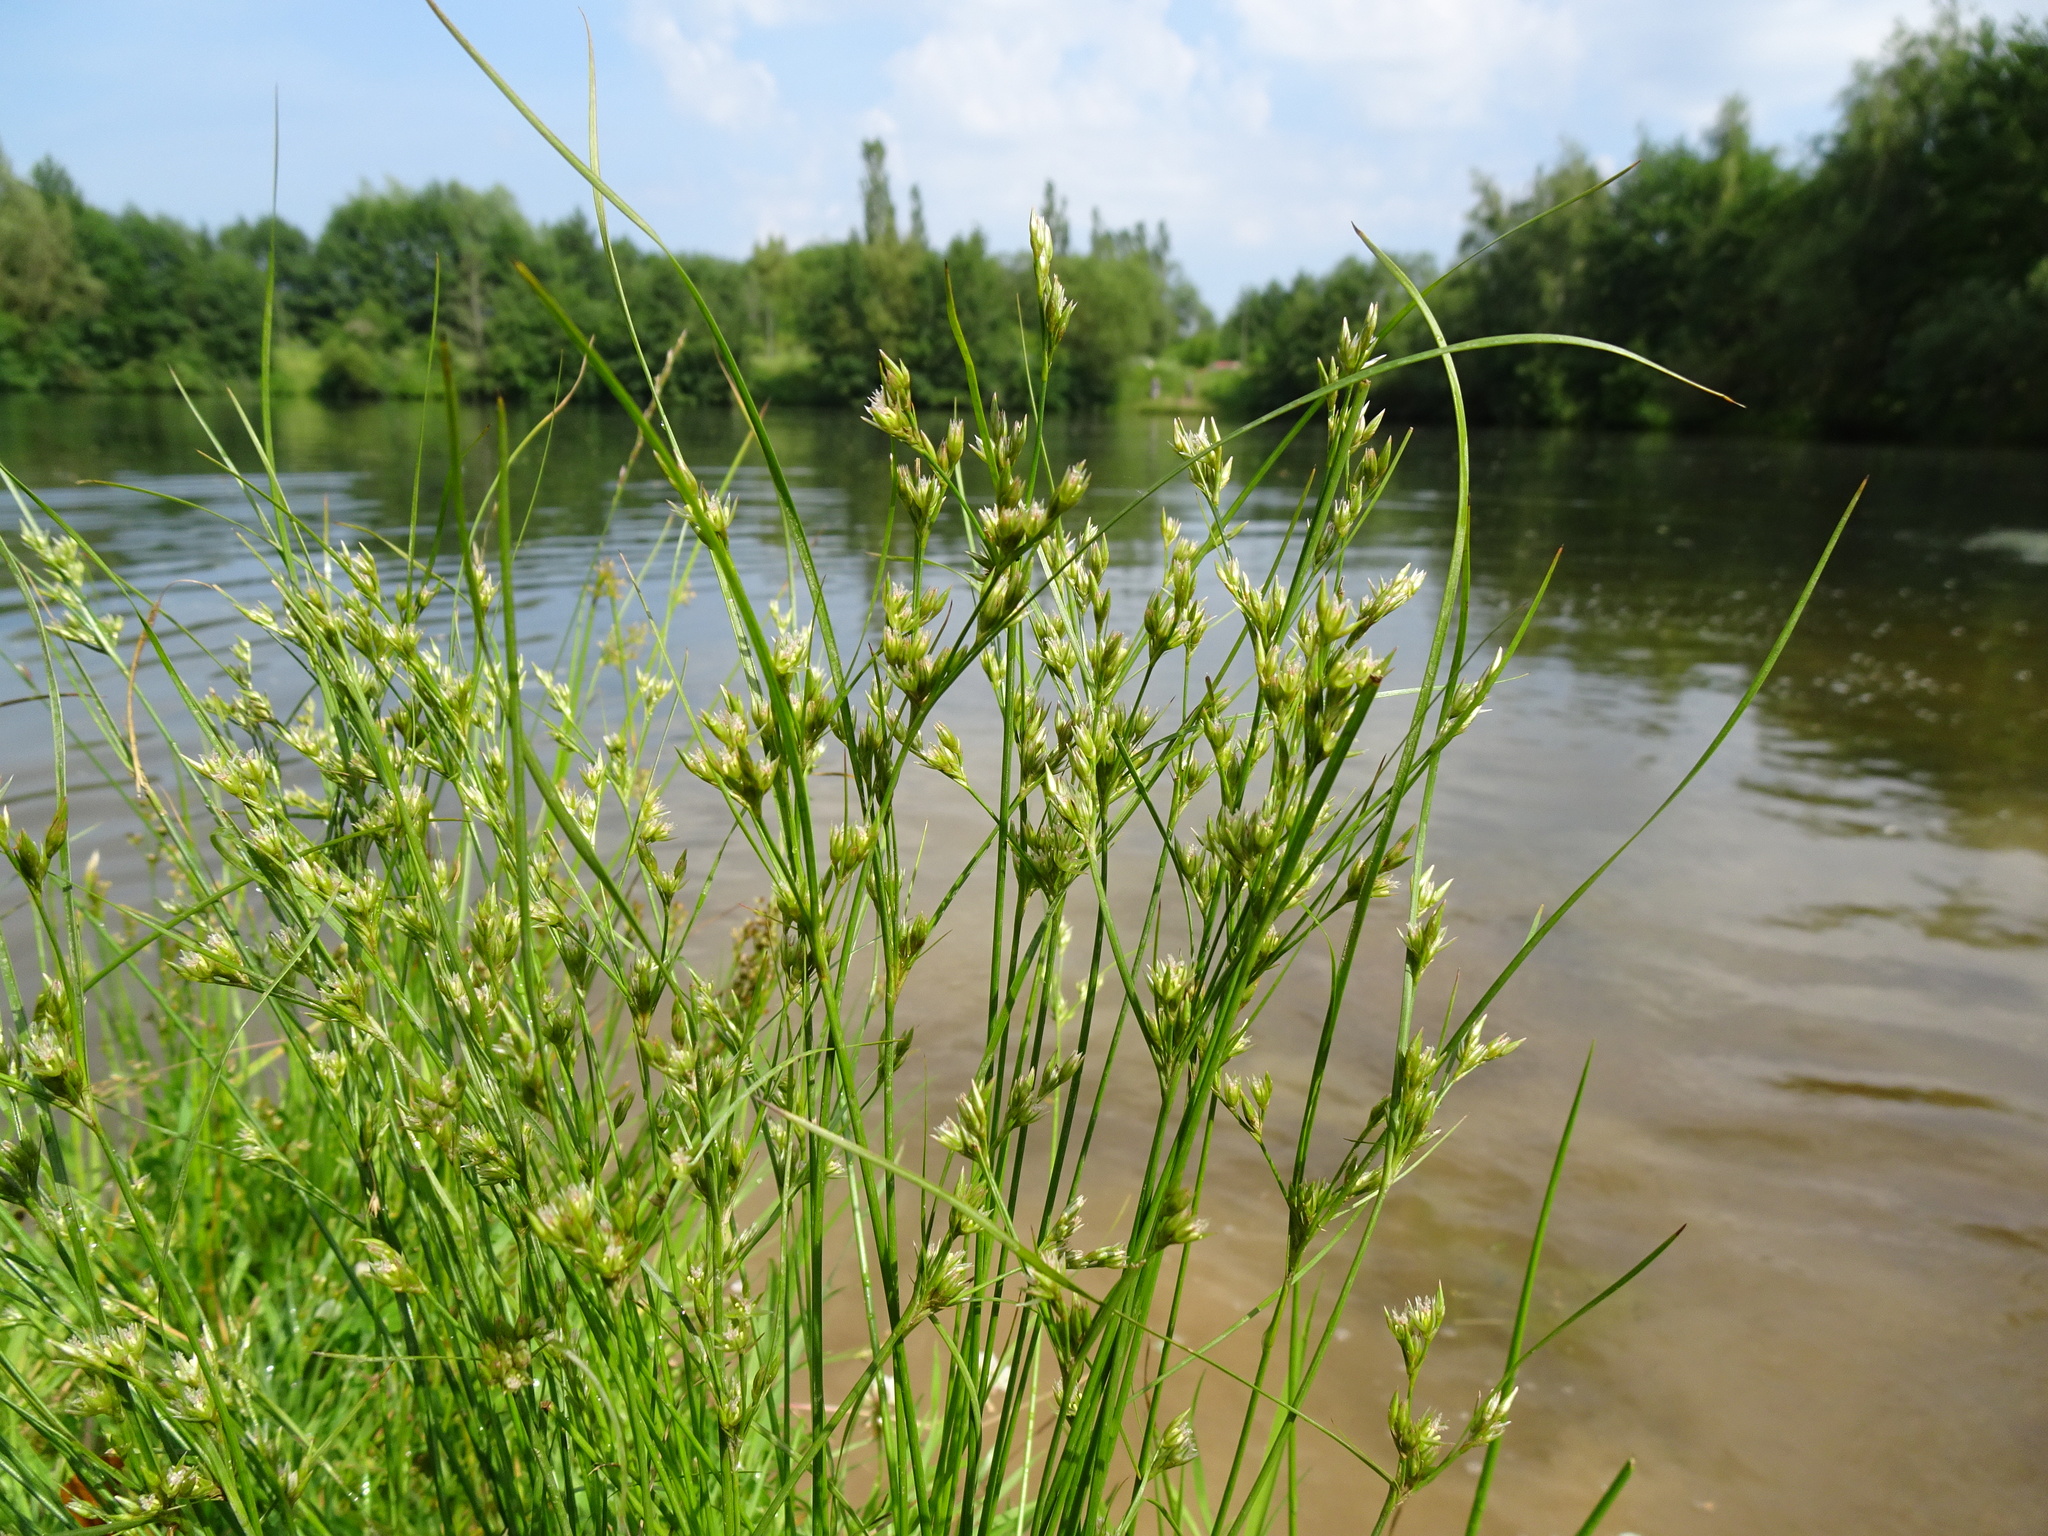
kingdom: Plantae
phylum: Tracheophyta
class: Liliopsida
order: Poales
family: Juncaceae
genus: Juncus
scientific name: Juncus tenuis
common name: Slender rush
